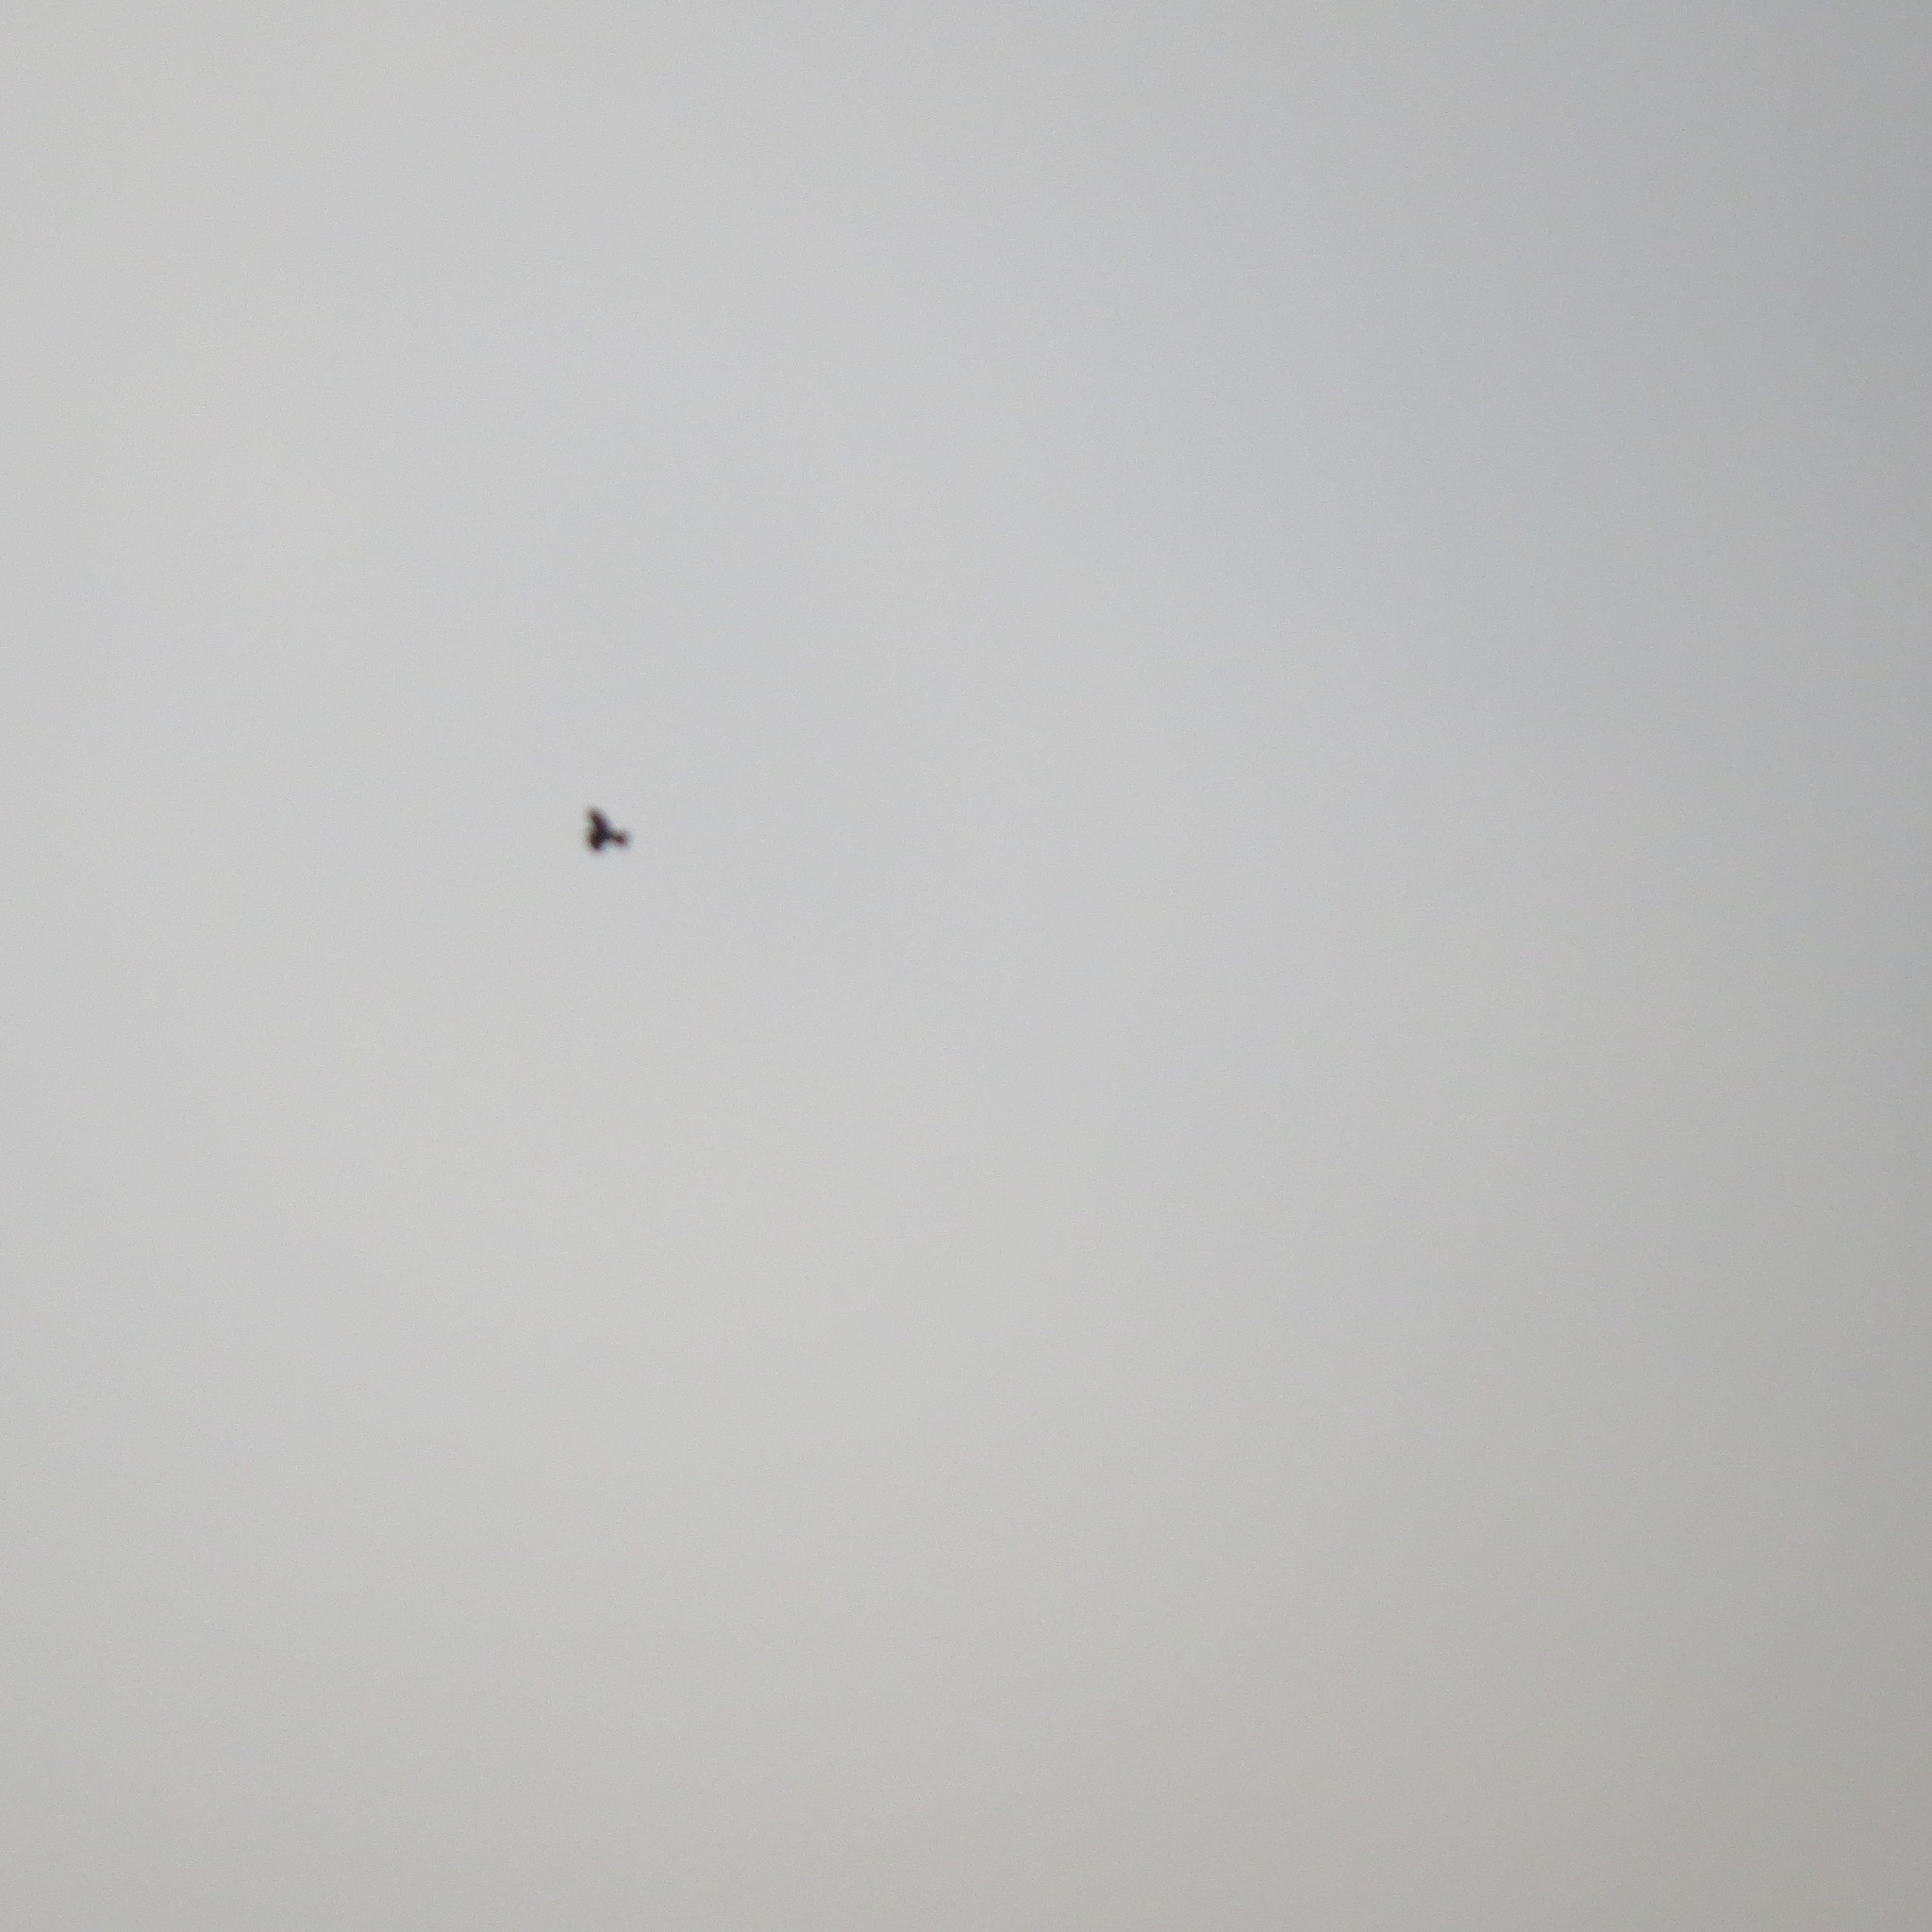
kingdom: Animalia
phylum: Chordata
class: Aves
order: Accipitriformes
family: Accipitridae
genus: Milvus
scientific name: Milvus migrans
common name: Black kite
